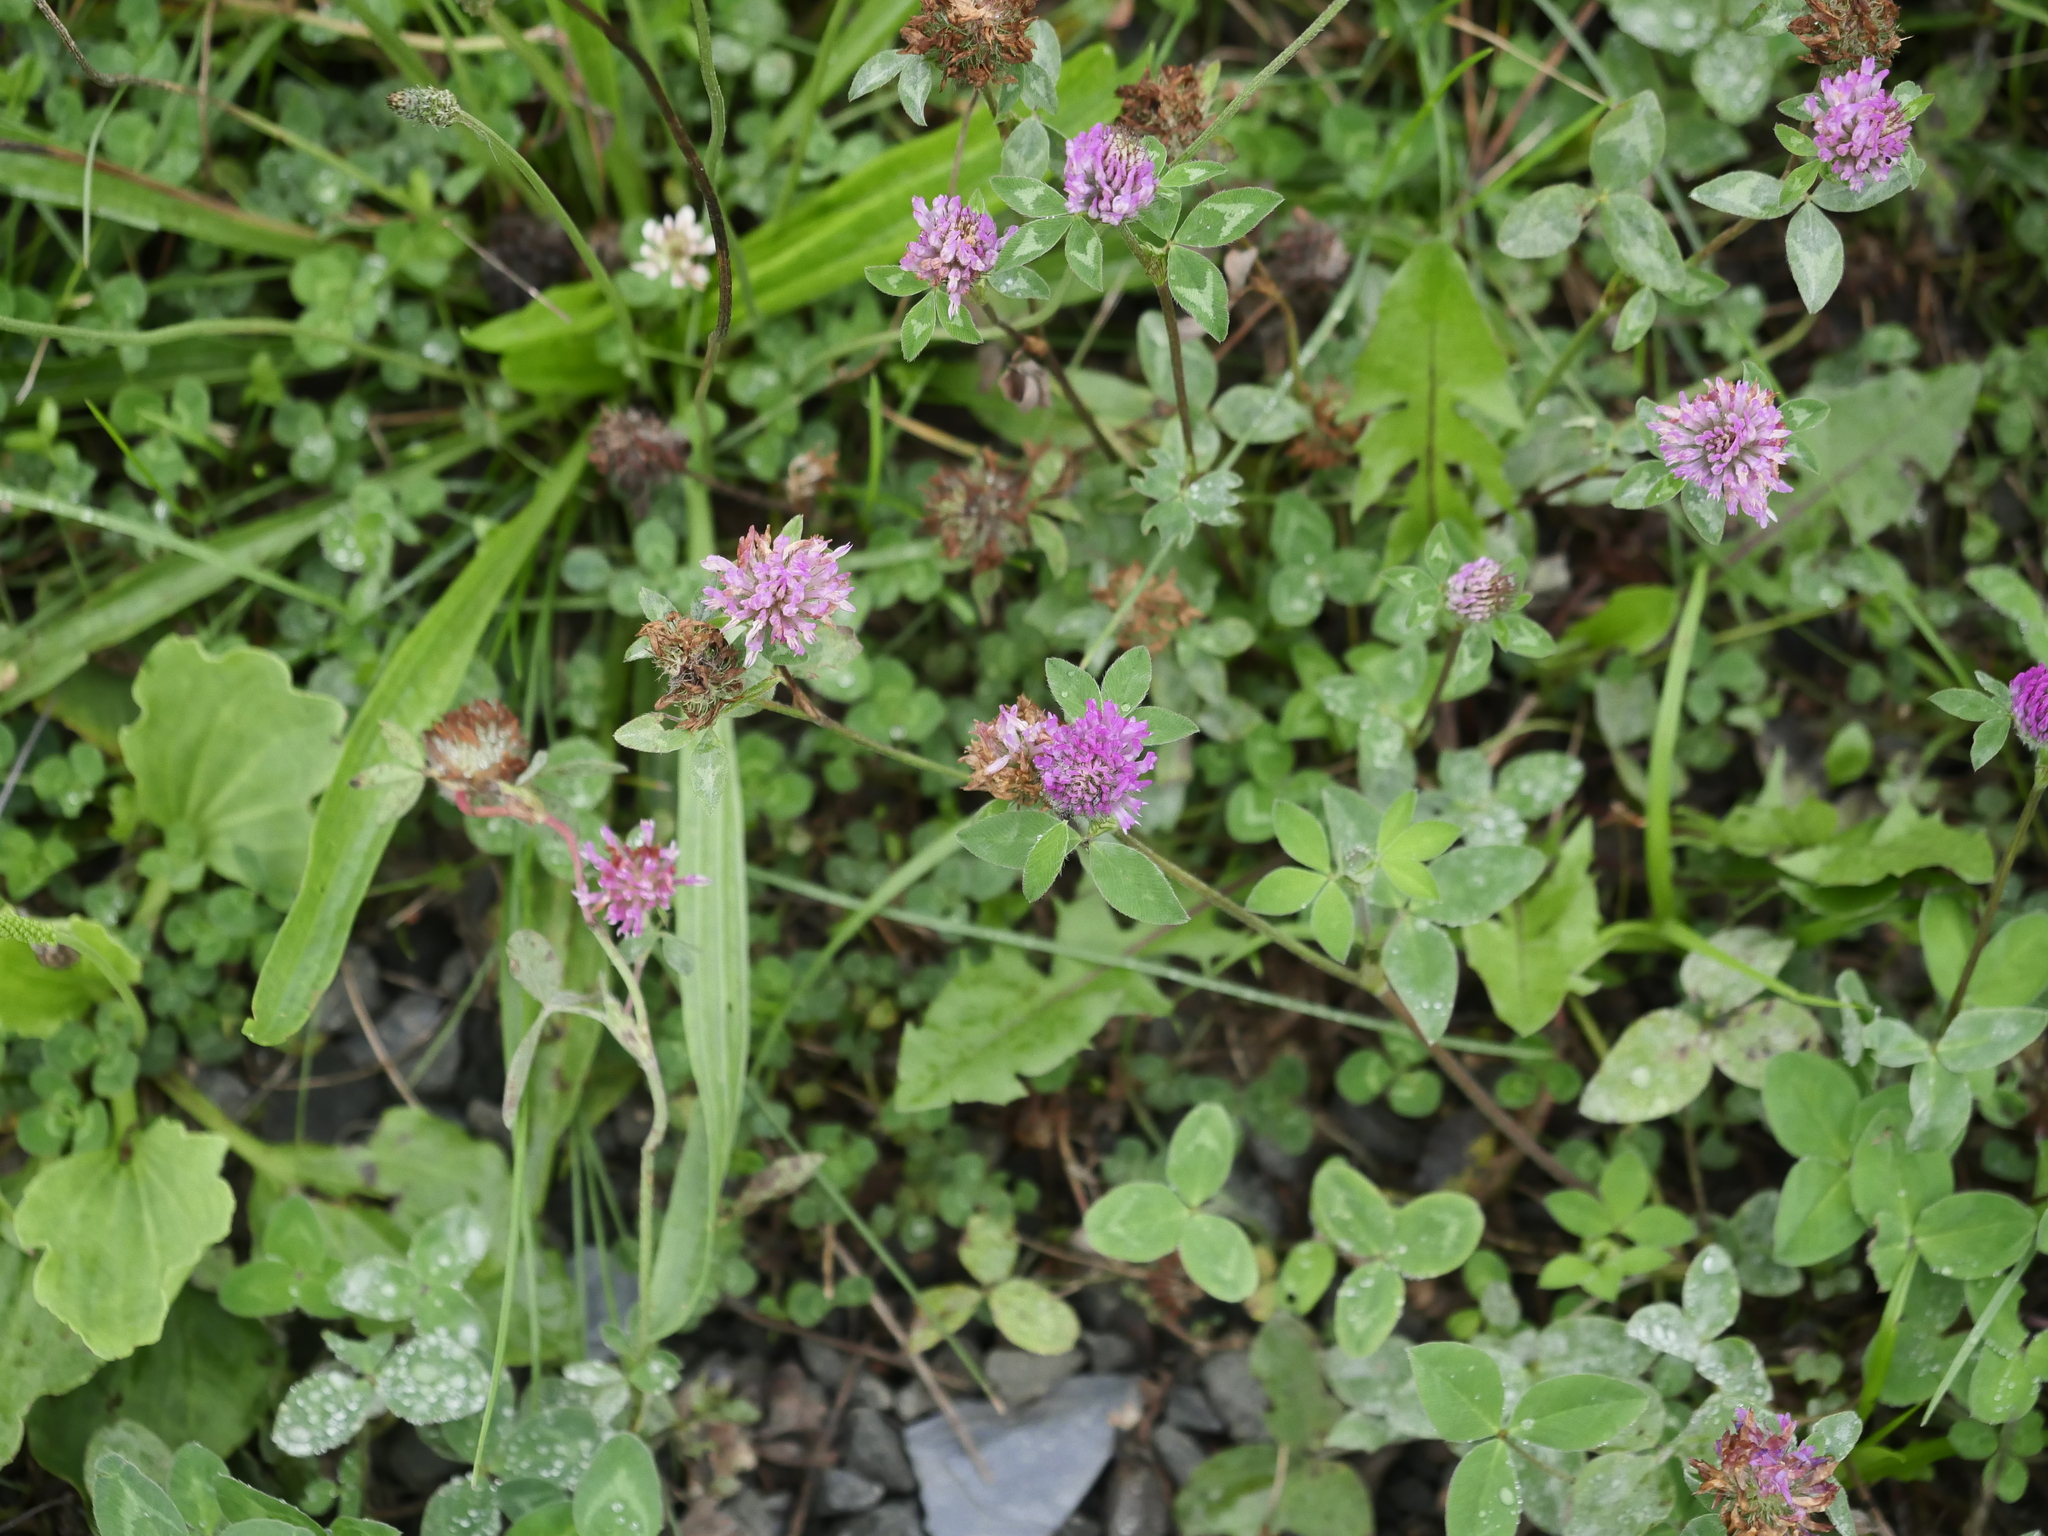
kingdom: Plantae
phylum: Tracheophyta
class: Magnoliopsida
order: Fabales
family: Fabaceae
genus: Trifolium
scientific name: Trifolium pratense
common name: Red clover
